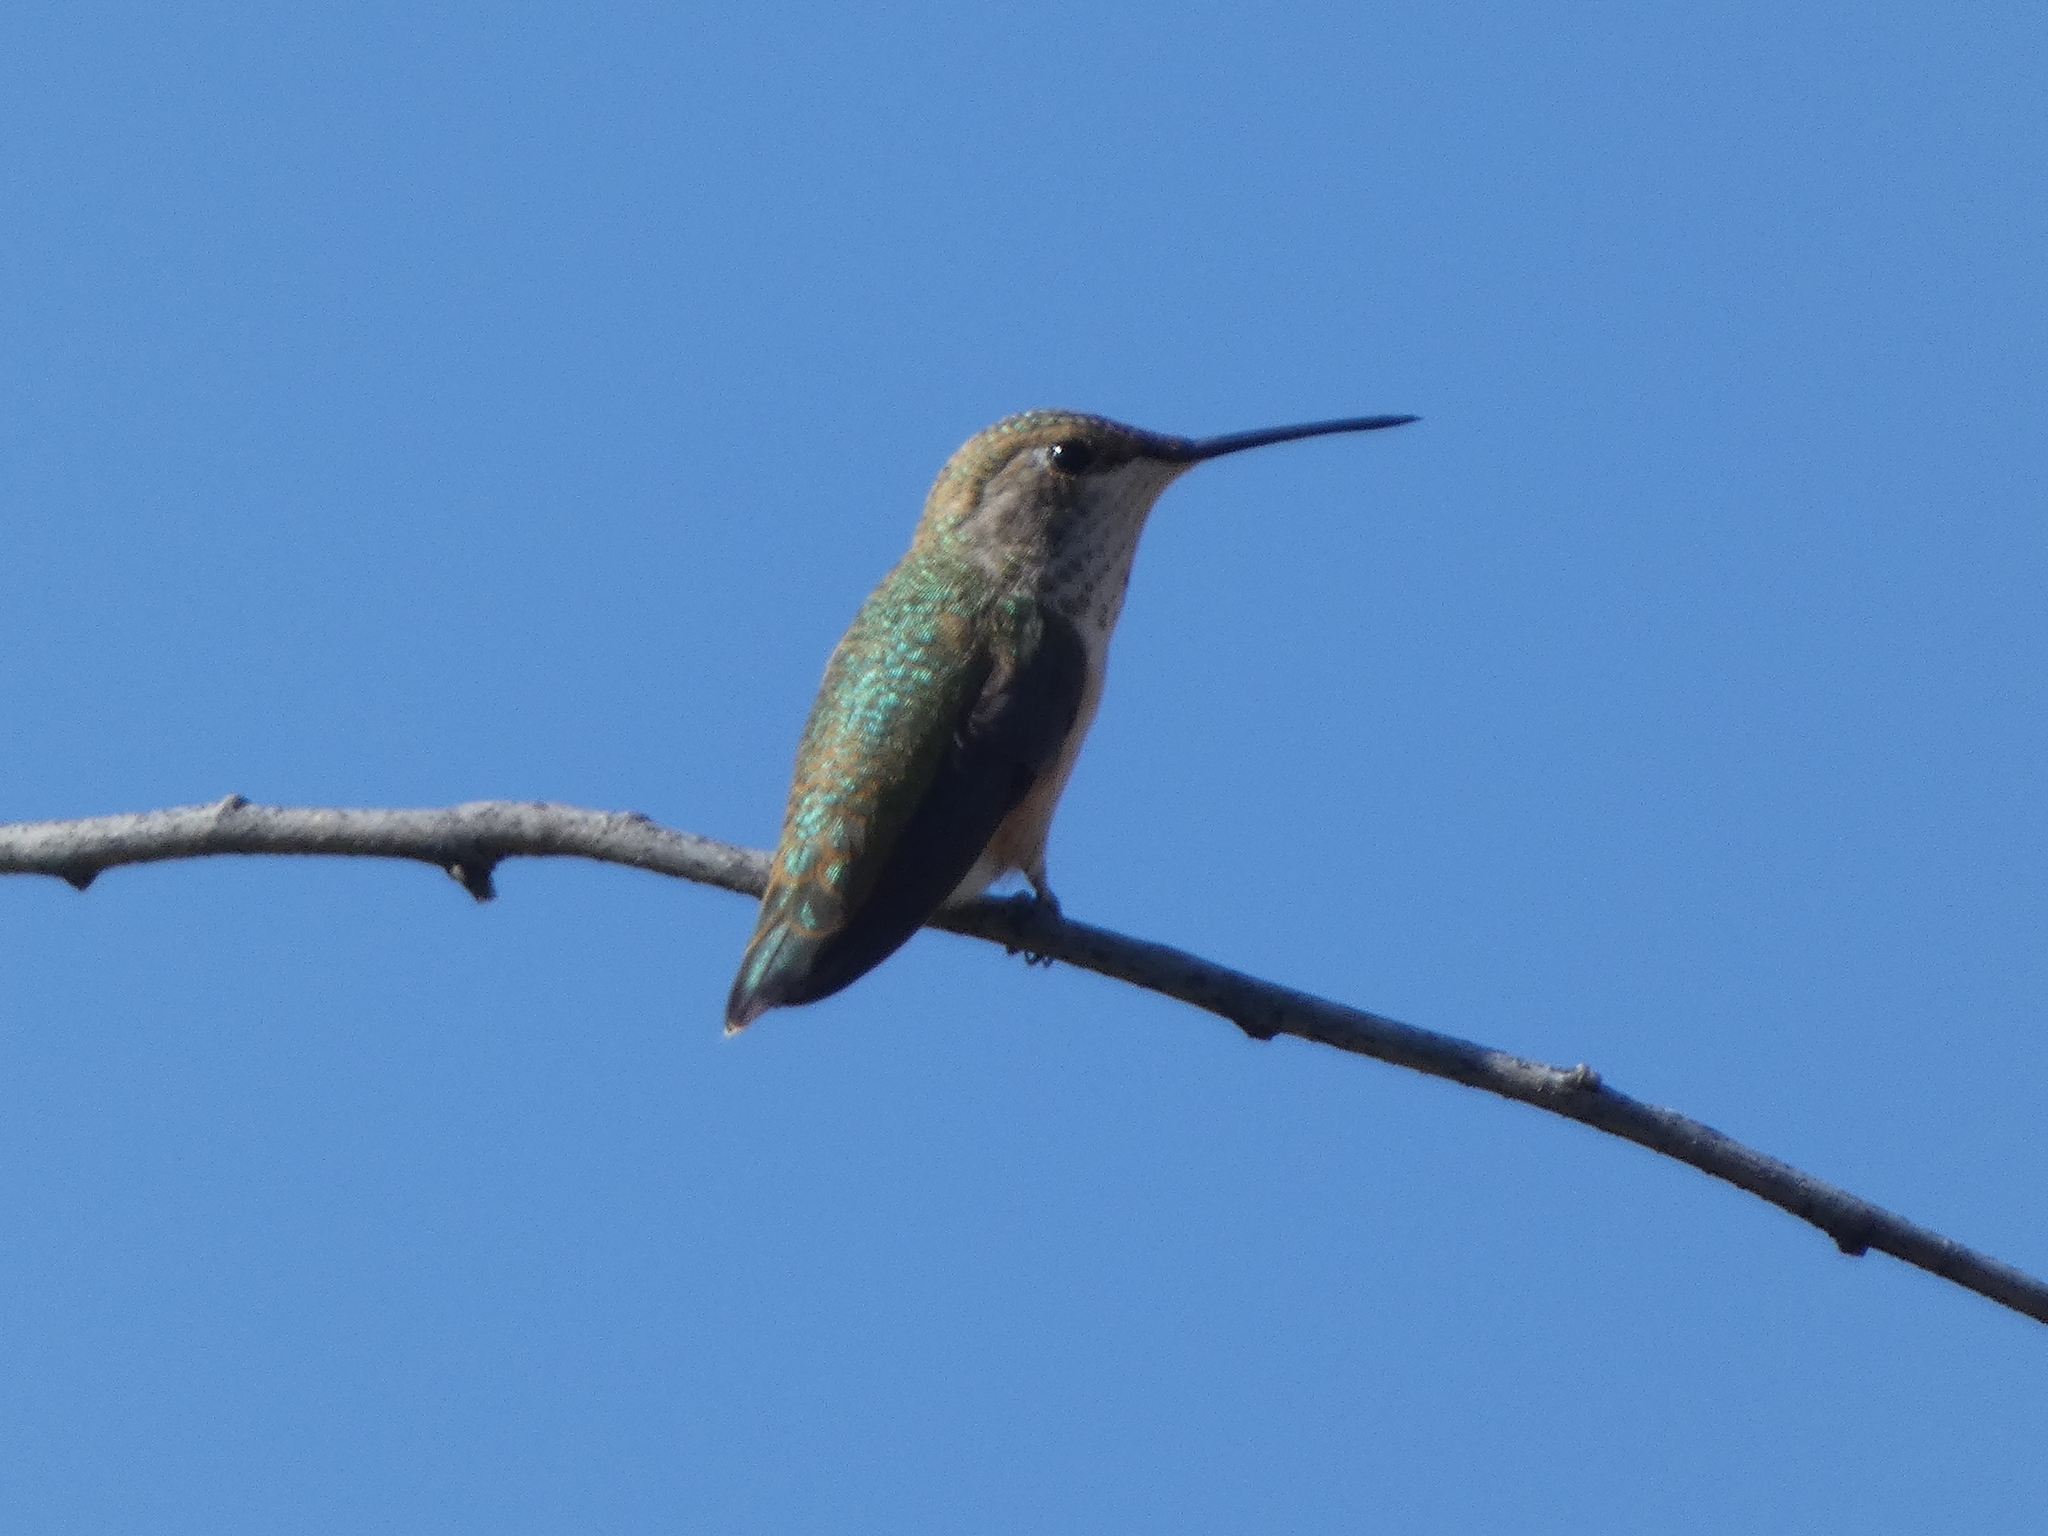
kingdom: Animalia
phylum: Chordata
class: Aves
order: Apodiformes
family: Trochilidae
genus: Selasphorus
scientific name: Selasphorus rufus
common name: Rufous hummingbird
